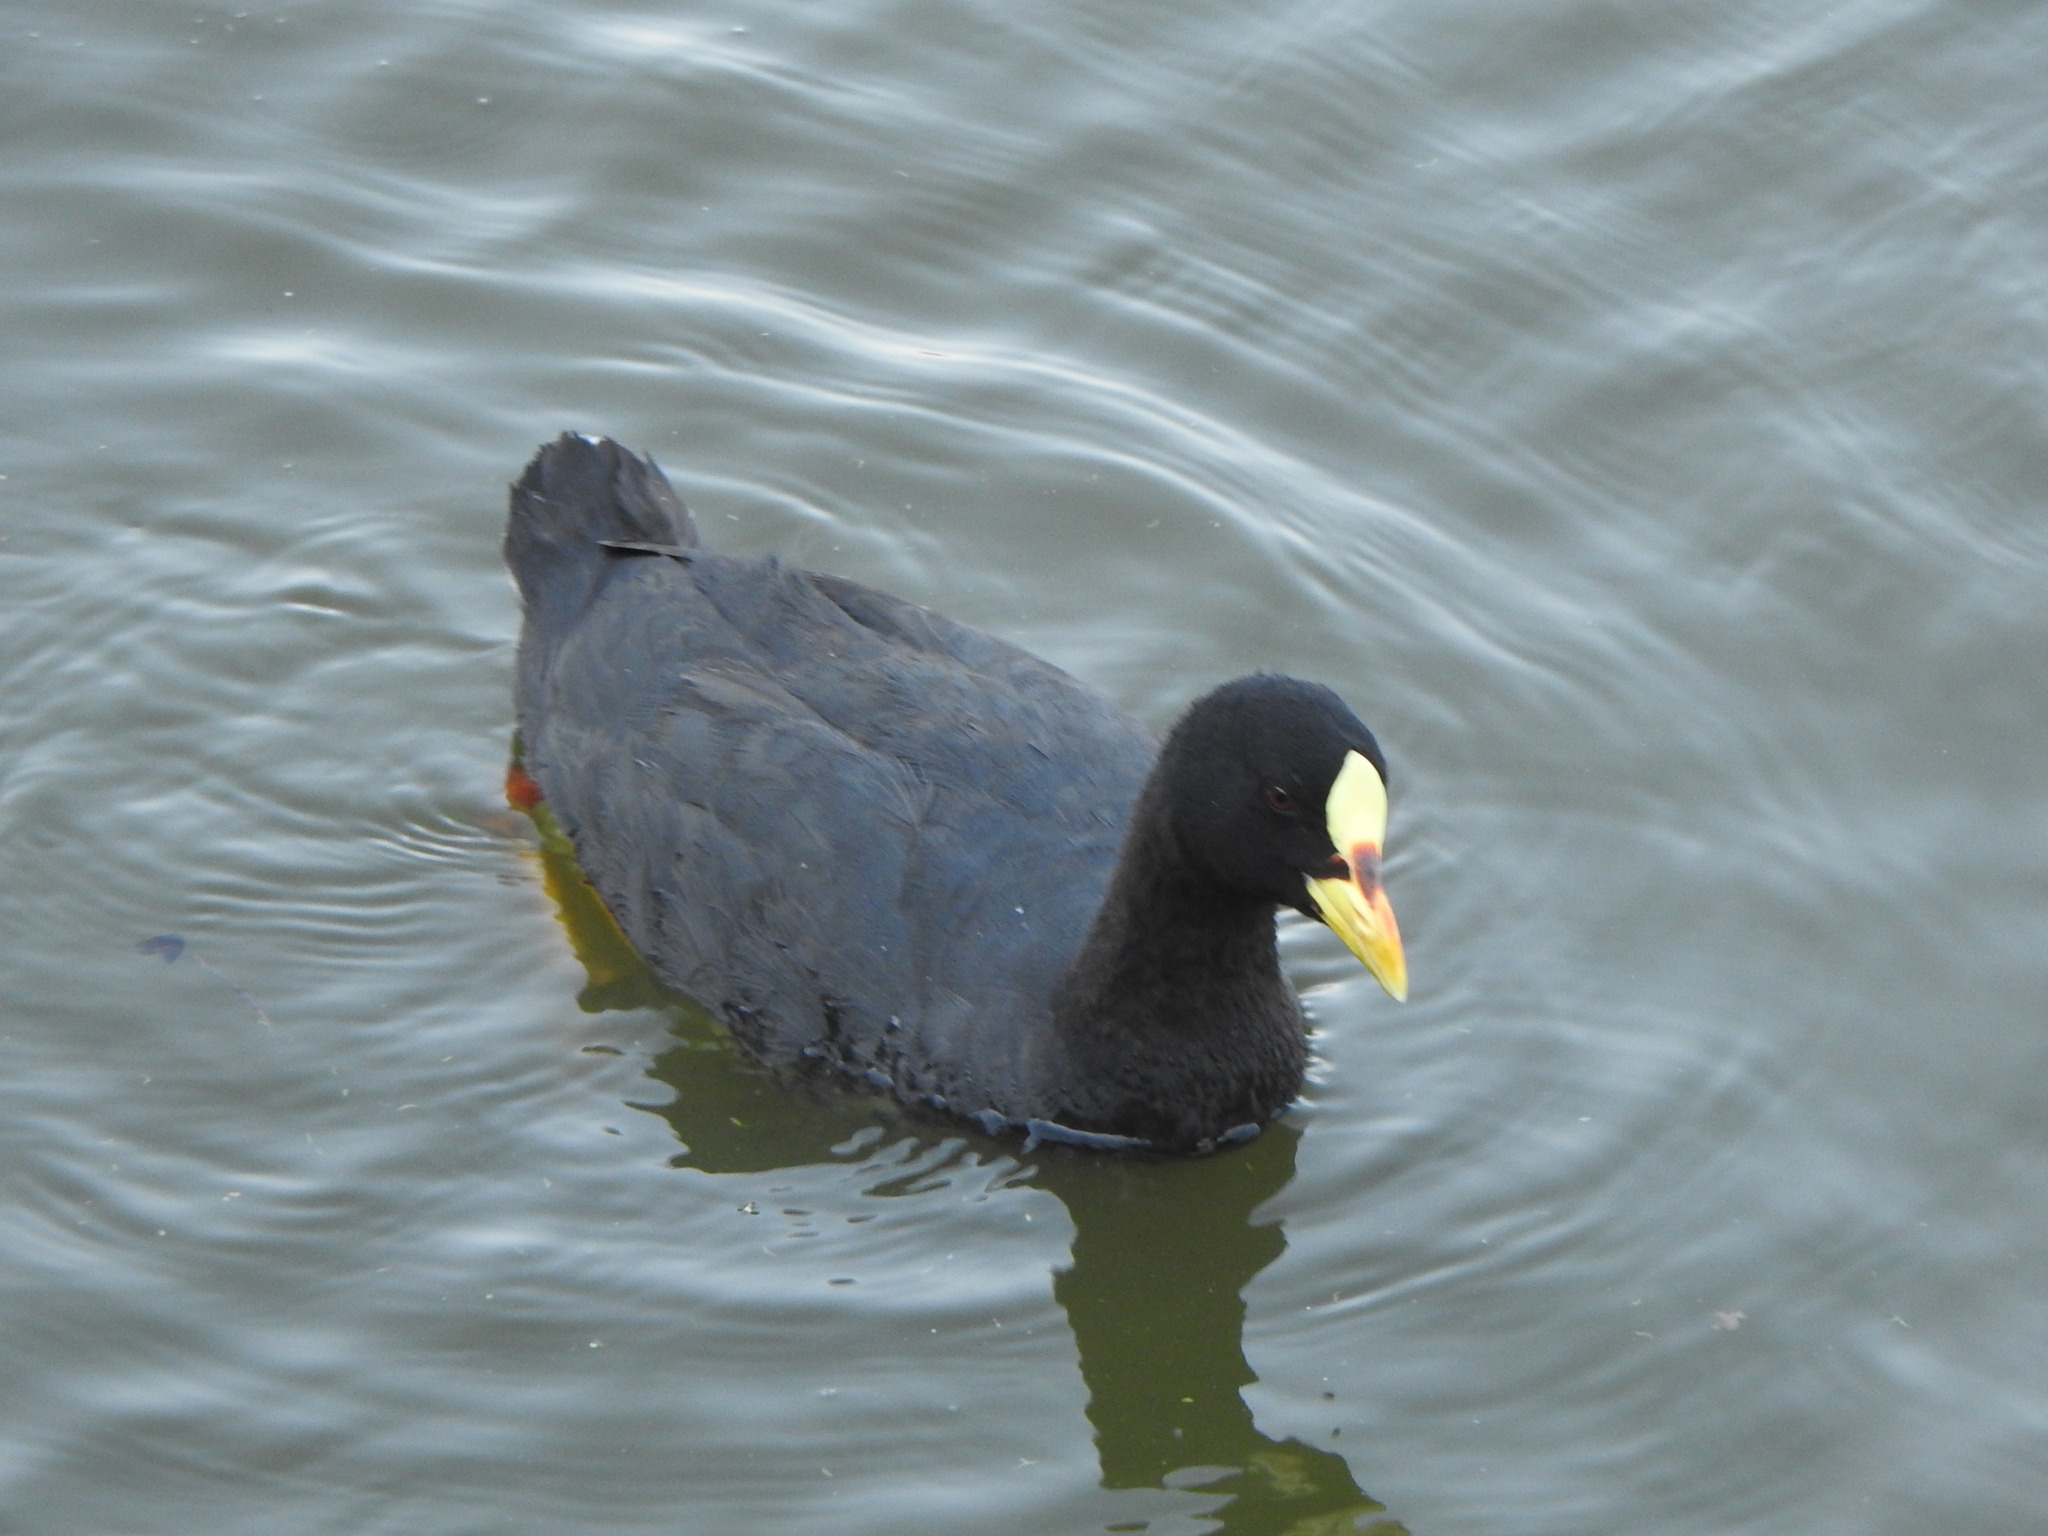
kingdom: Animalia
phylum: Chordata
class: Aves
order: Gruiformes
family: Rallidae
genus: Fulica
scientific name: Fulica armillata
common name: Red-gartered coot
